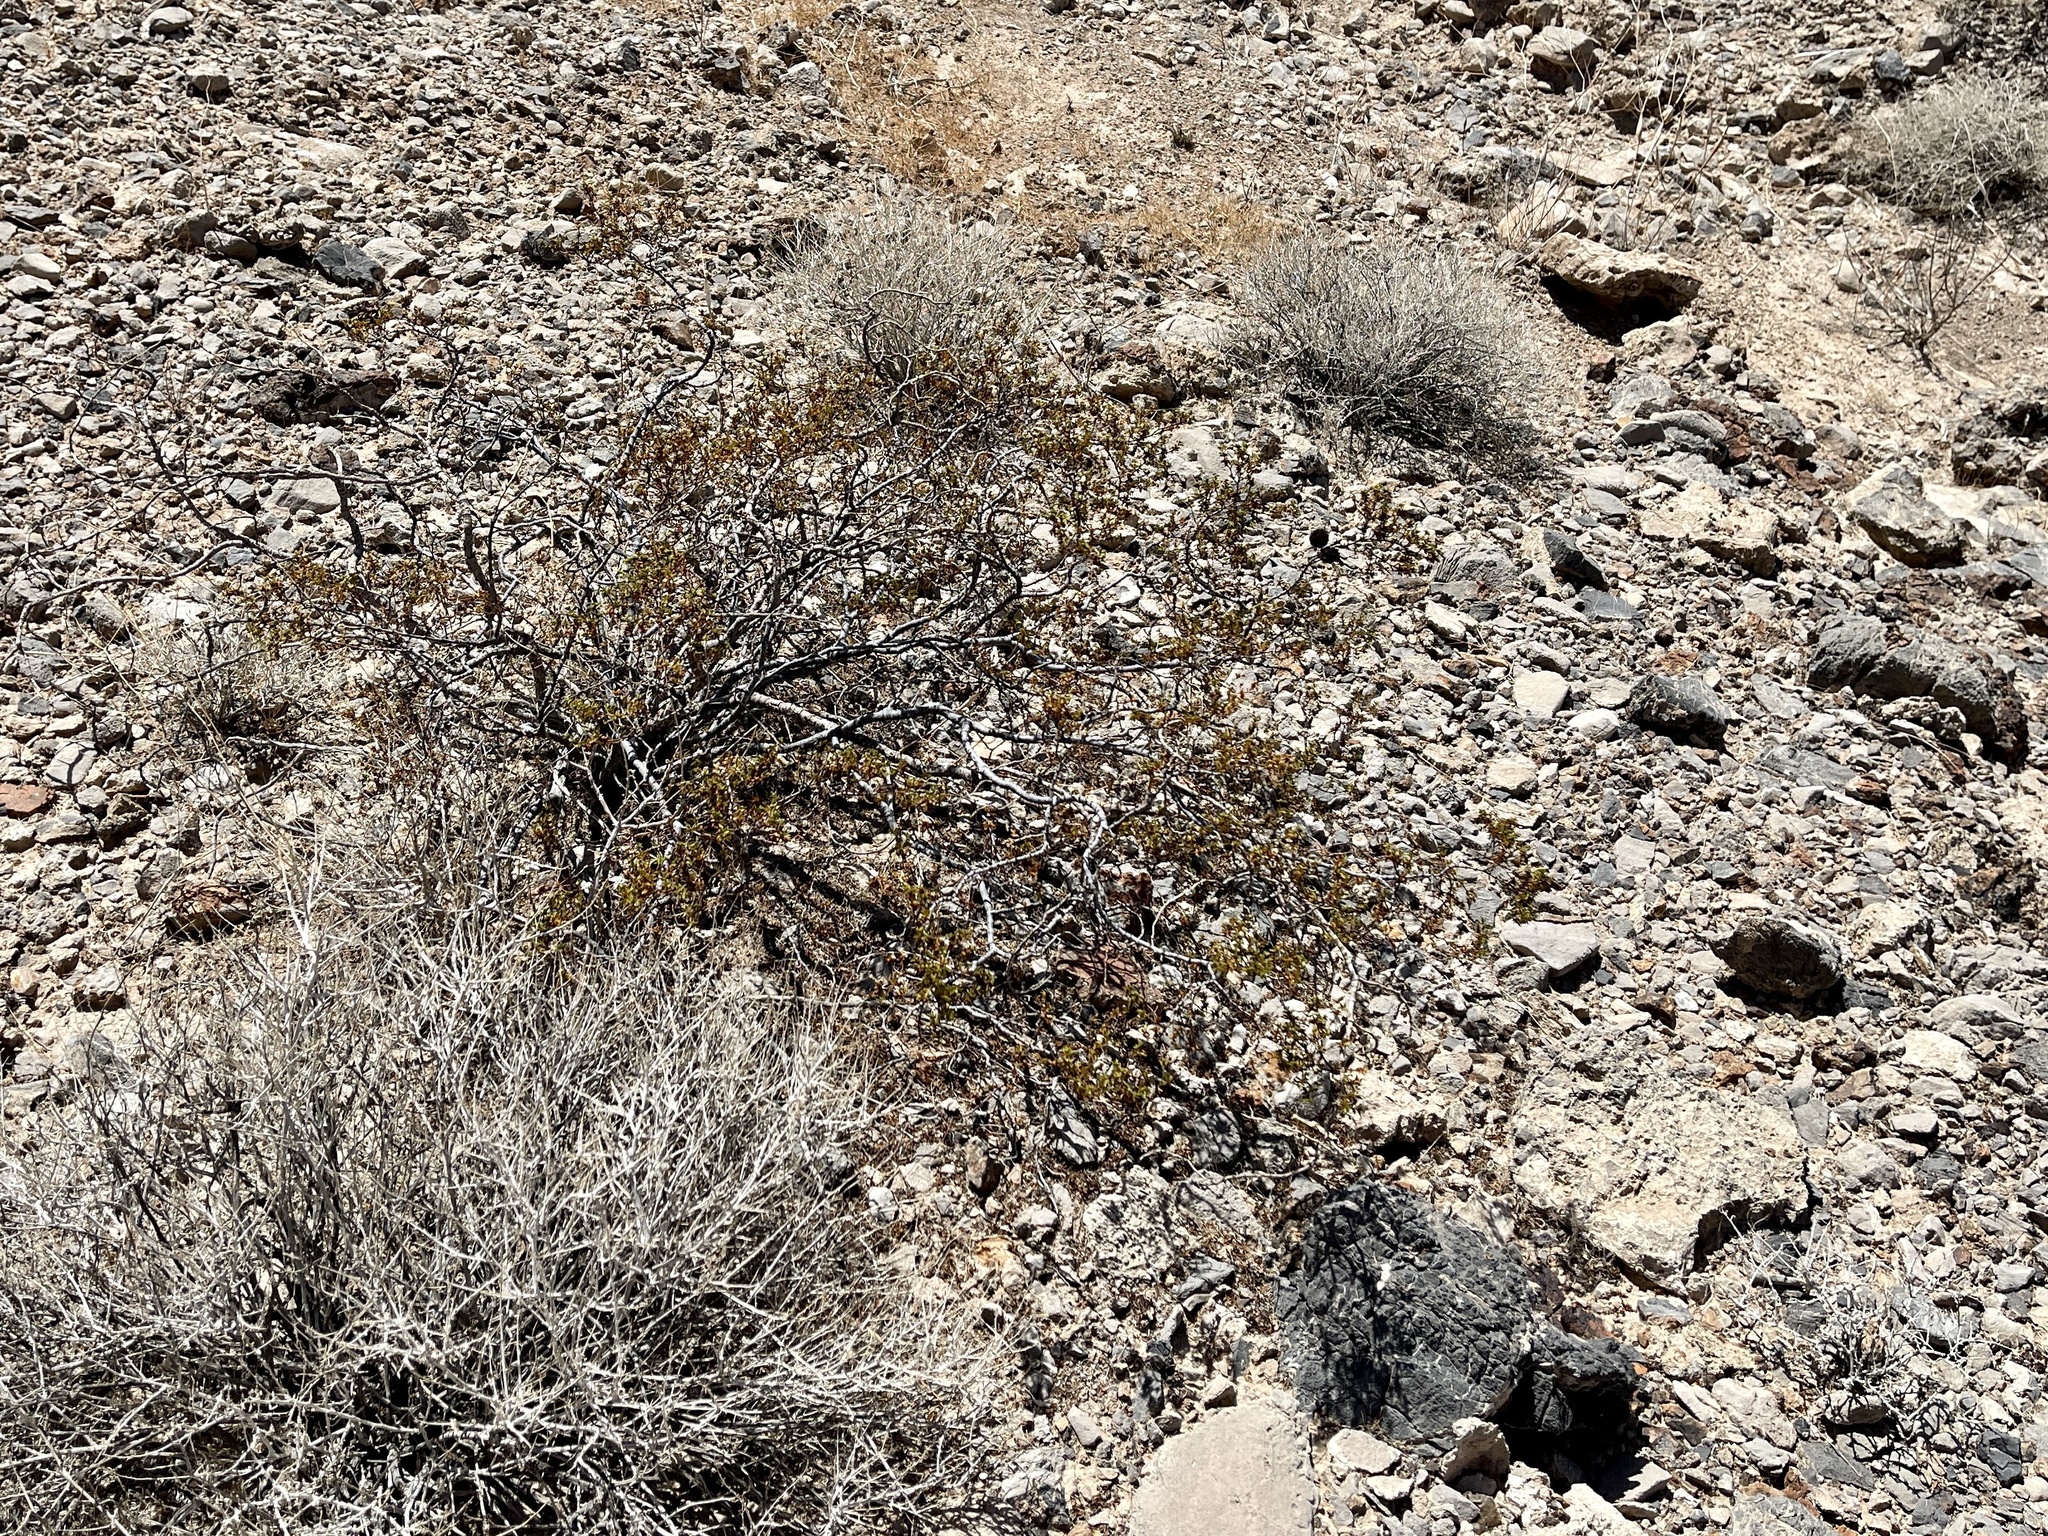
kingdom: Plantae
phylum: Tracheophyta
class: Magnoliopsida
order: Zygophyllales
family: Zygophyllaceae
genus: Larrea
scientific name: Larrea tridentata
